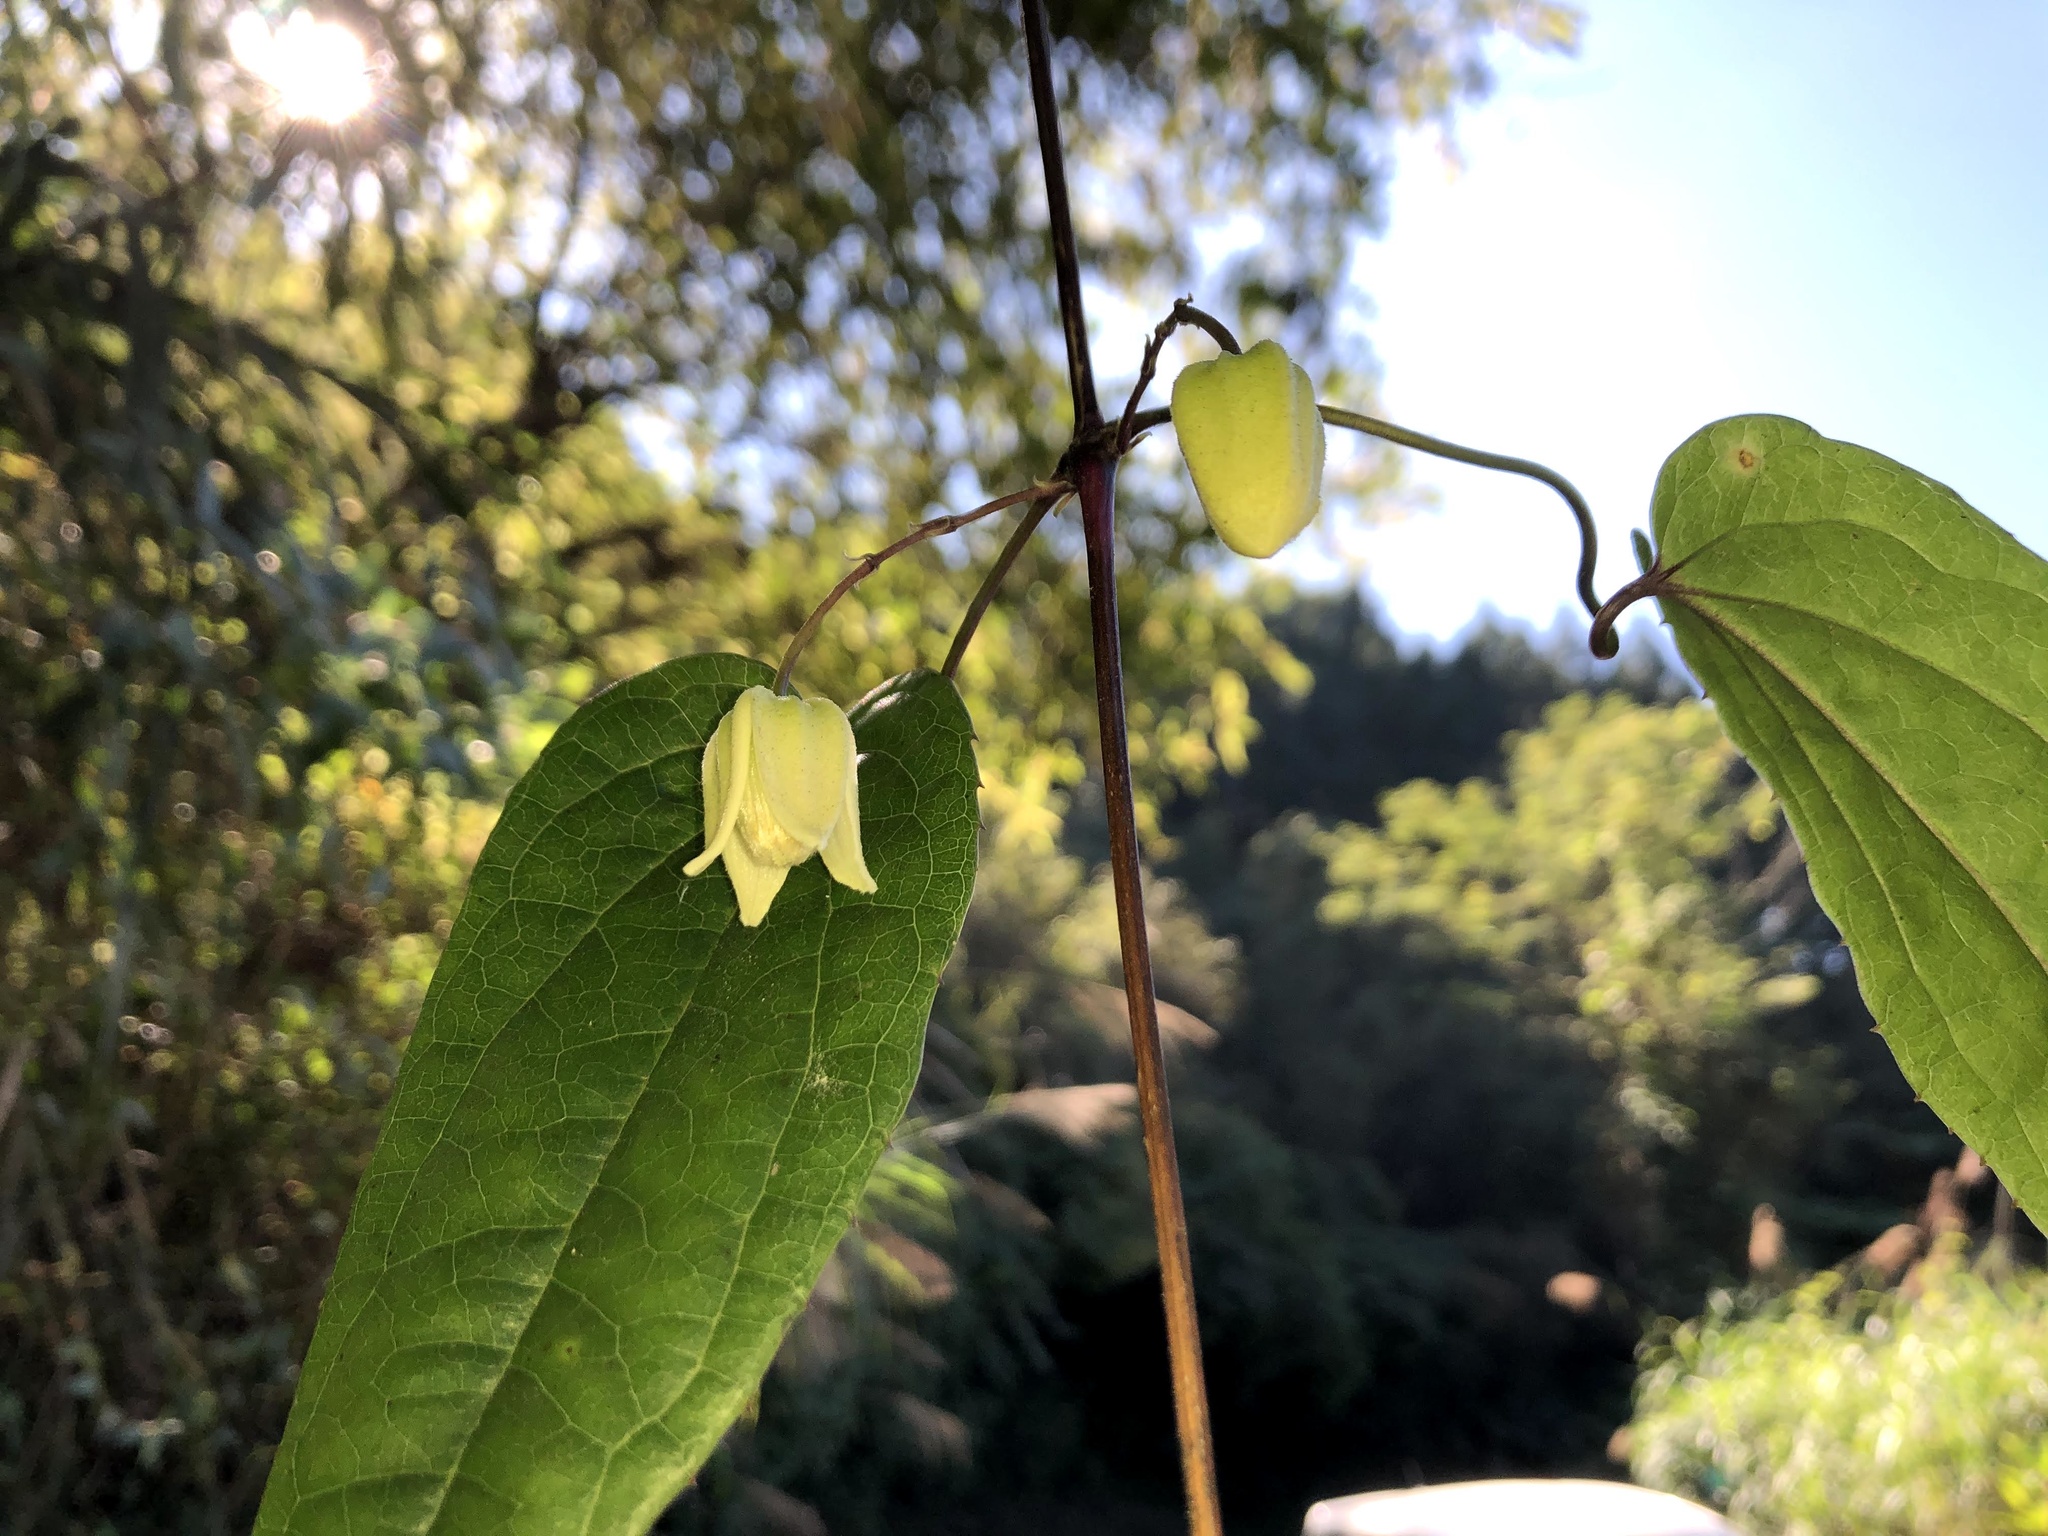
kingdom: Plantae
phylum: Tracheophyta
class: Magnoliopsida
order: Ranunculales
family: Ranunculaceae
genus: Clematis
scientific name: Clematis
